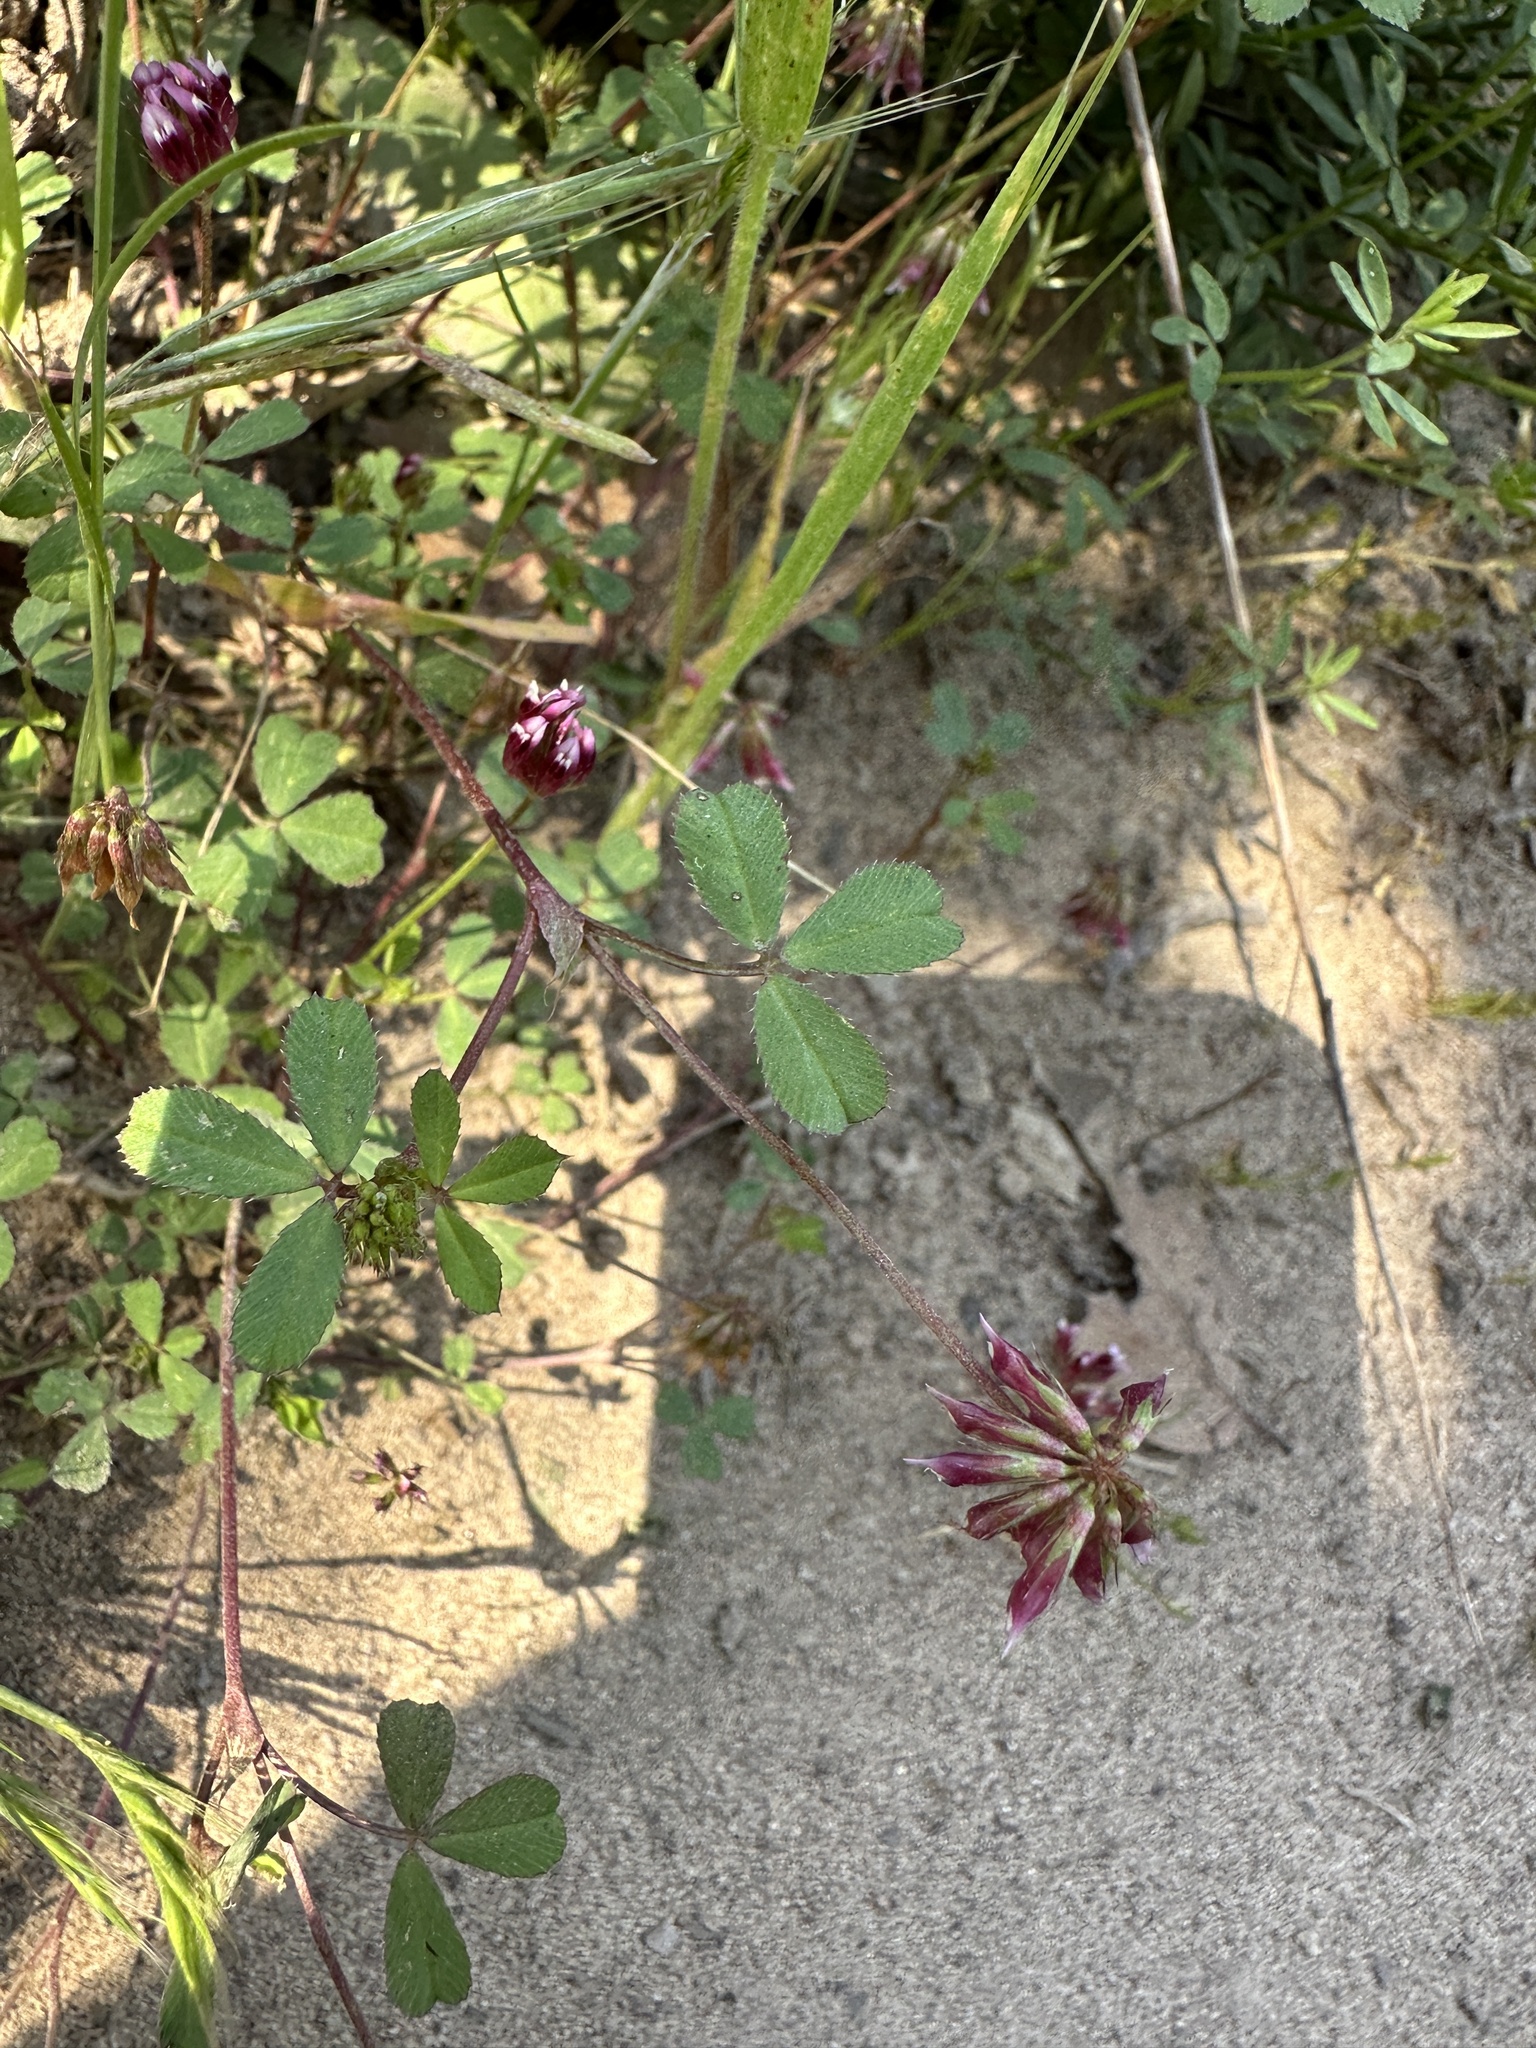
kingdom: Plantae
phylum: Tracheophyta
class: Magnoliopsida
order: Fabales
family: Fabaceae
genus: Trifolium
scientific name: Trifolium gracilentum
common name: Slender clover
